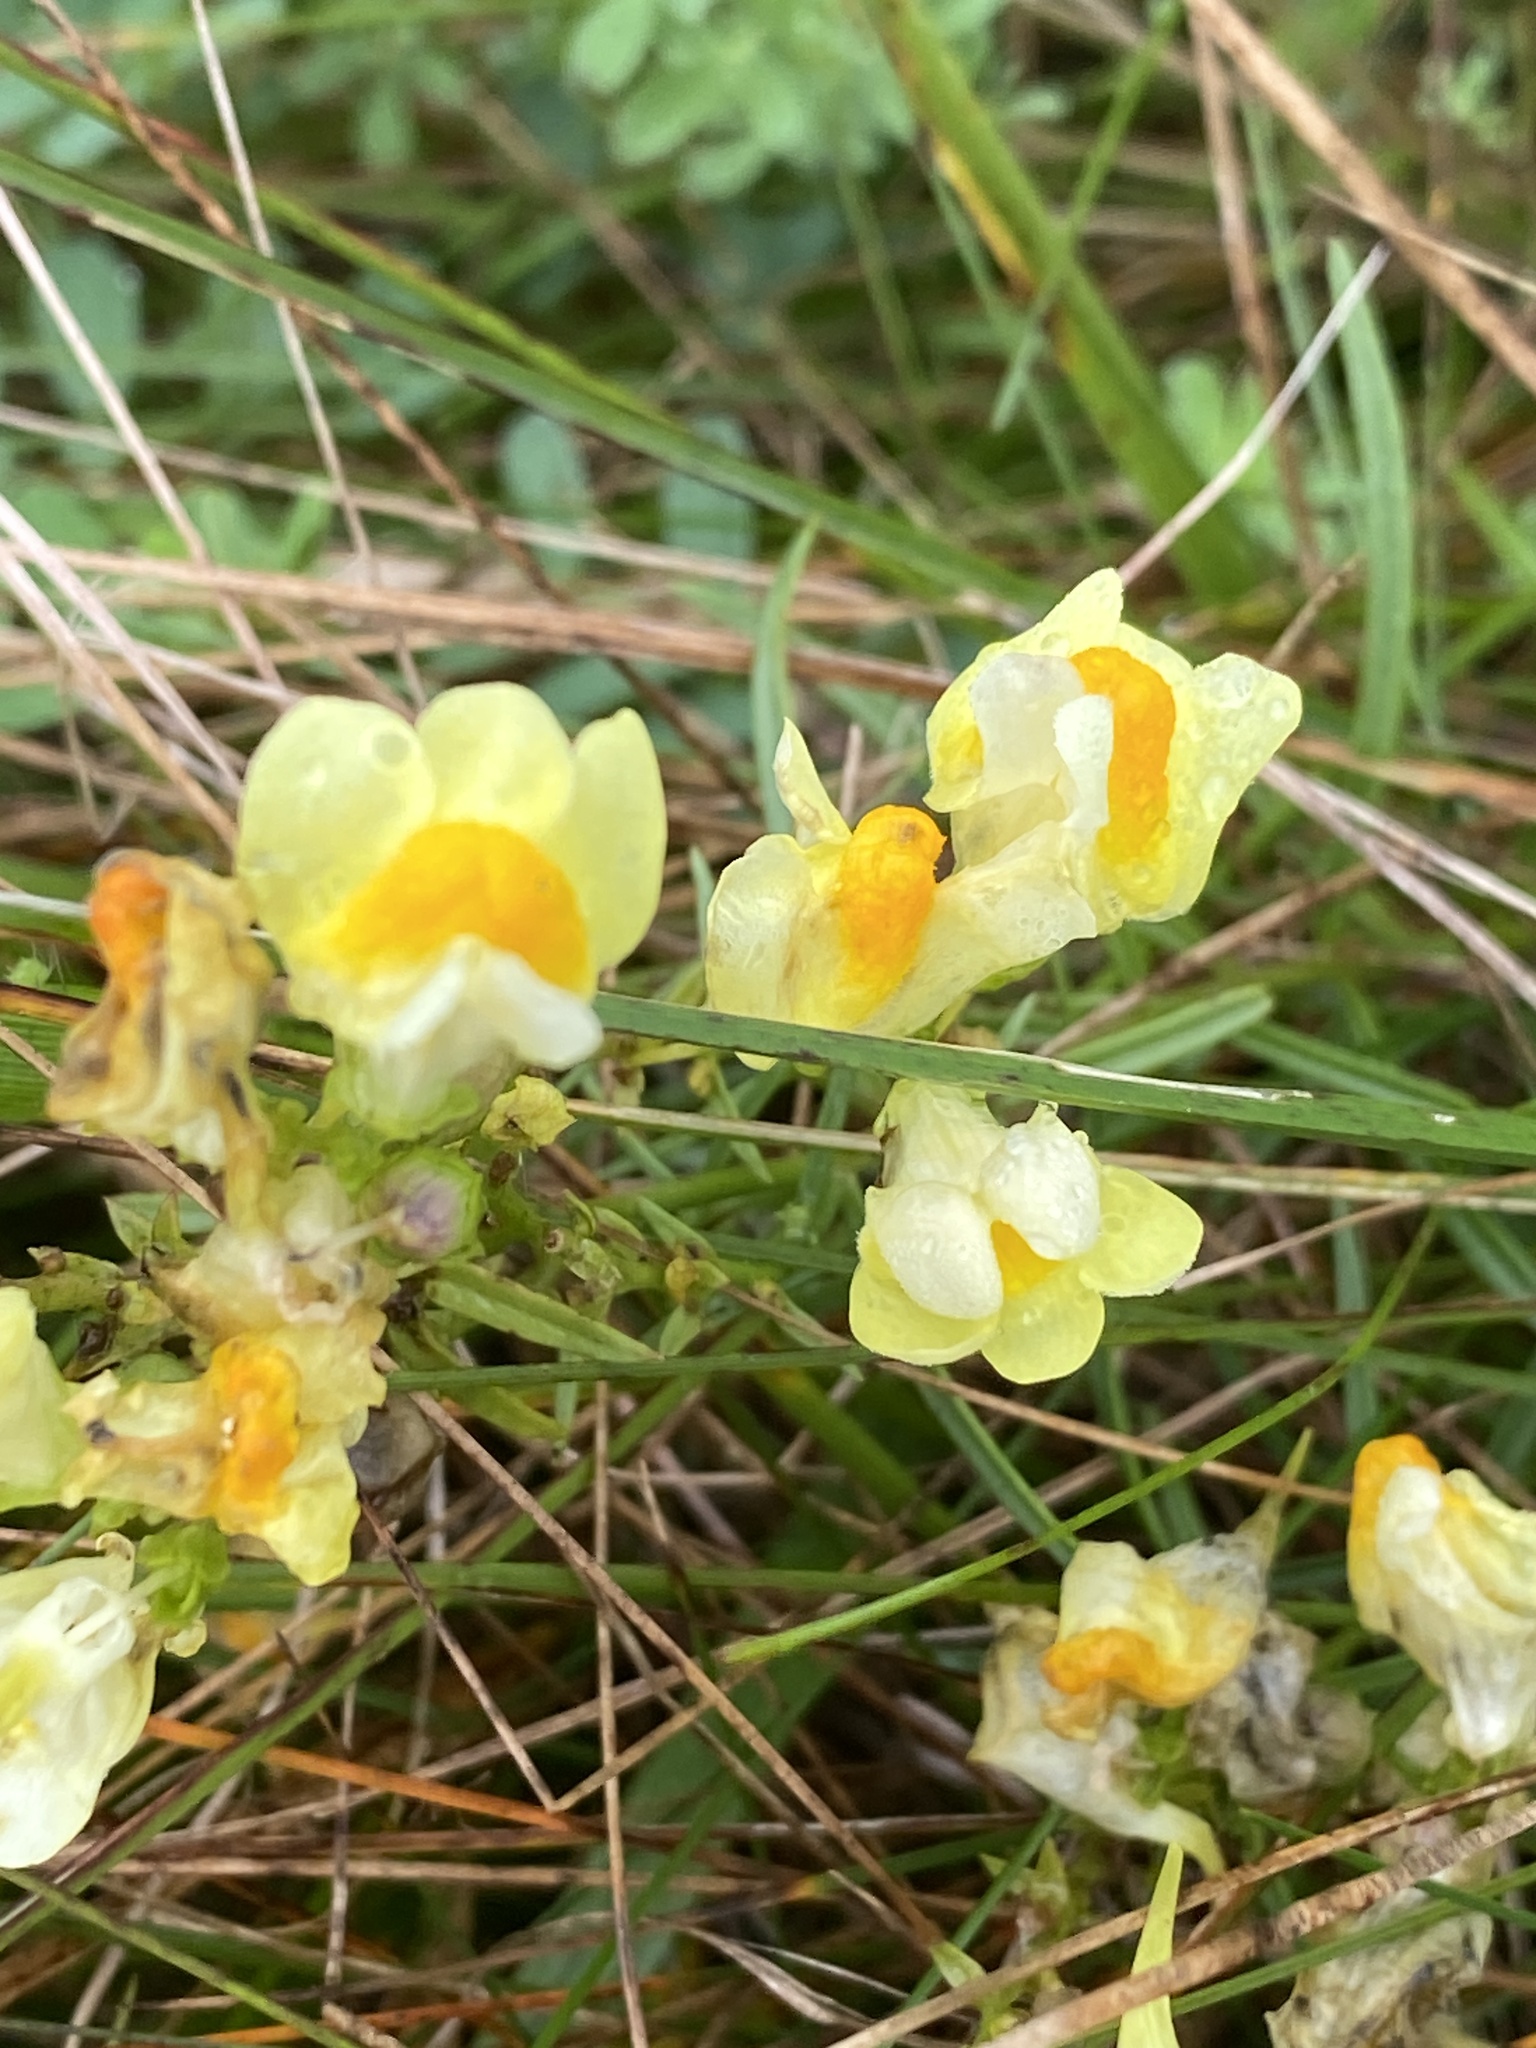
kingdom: Plantae
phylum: Tracheophyta
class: Magnoliopsida
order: Lamiales
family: Plantaginaceae
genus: Linaria
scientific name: Linaria vulgaris
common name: Butter and eggs
